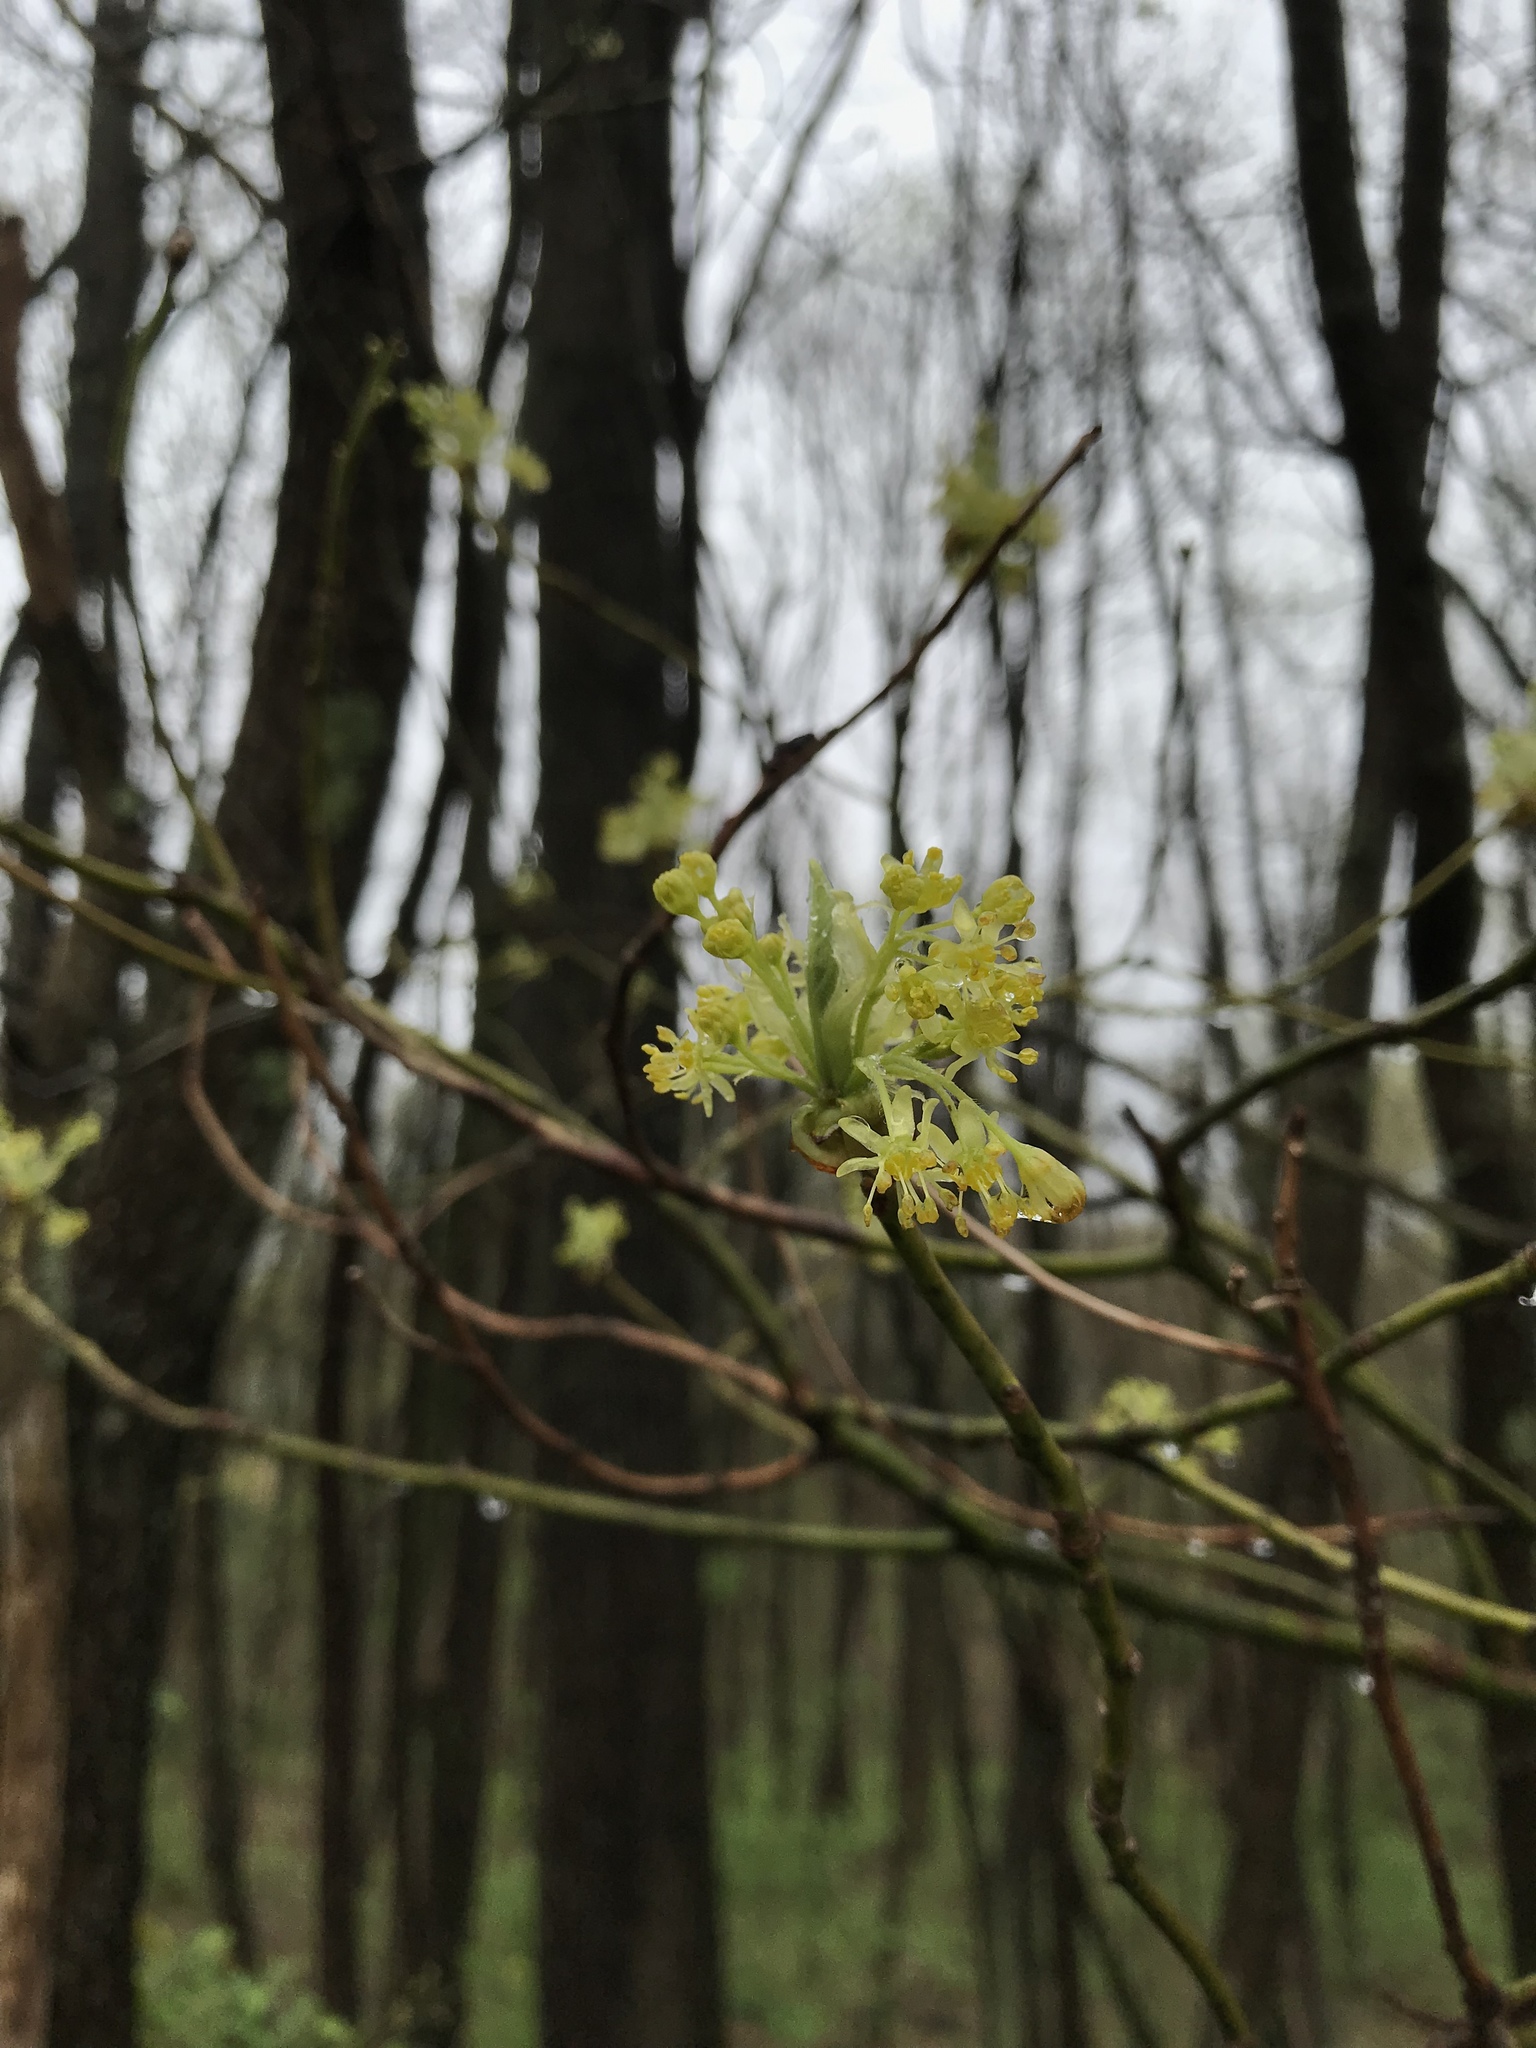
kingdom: Plantae
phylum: Tracheophyta
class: Magnoliopsida
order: Laurales
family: Lauraceae
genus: Sassafras
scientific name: Sassafras albidum
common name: Sassafras
